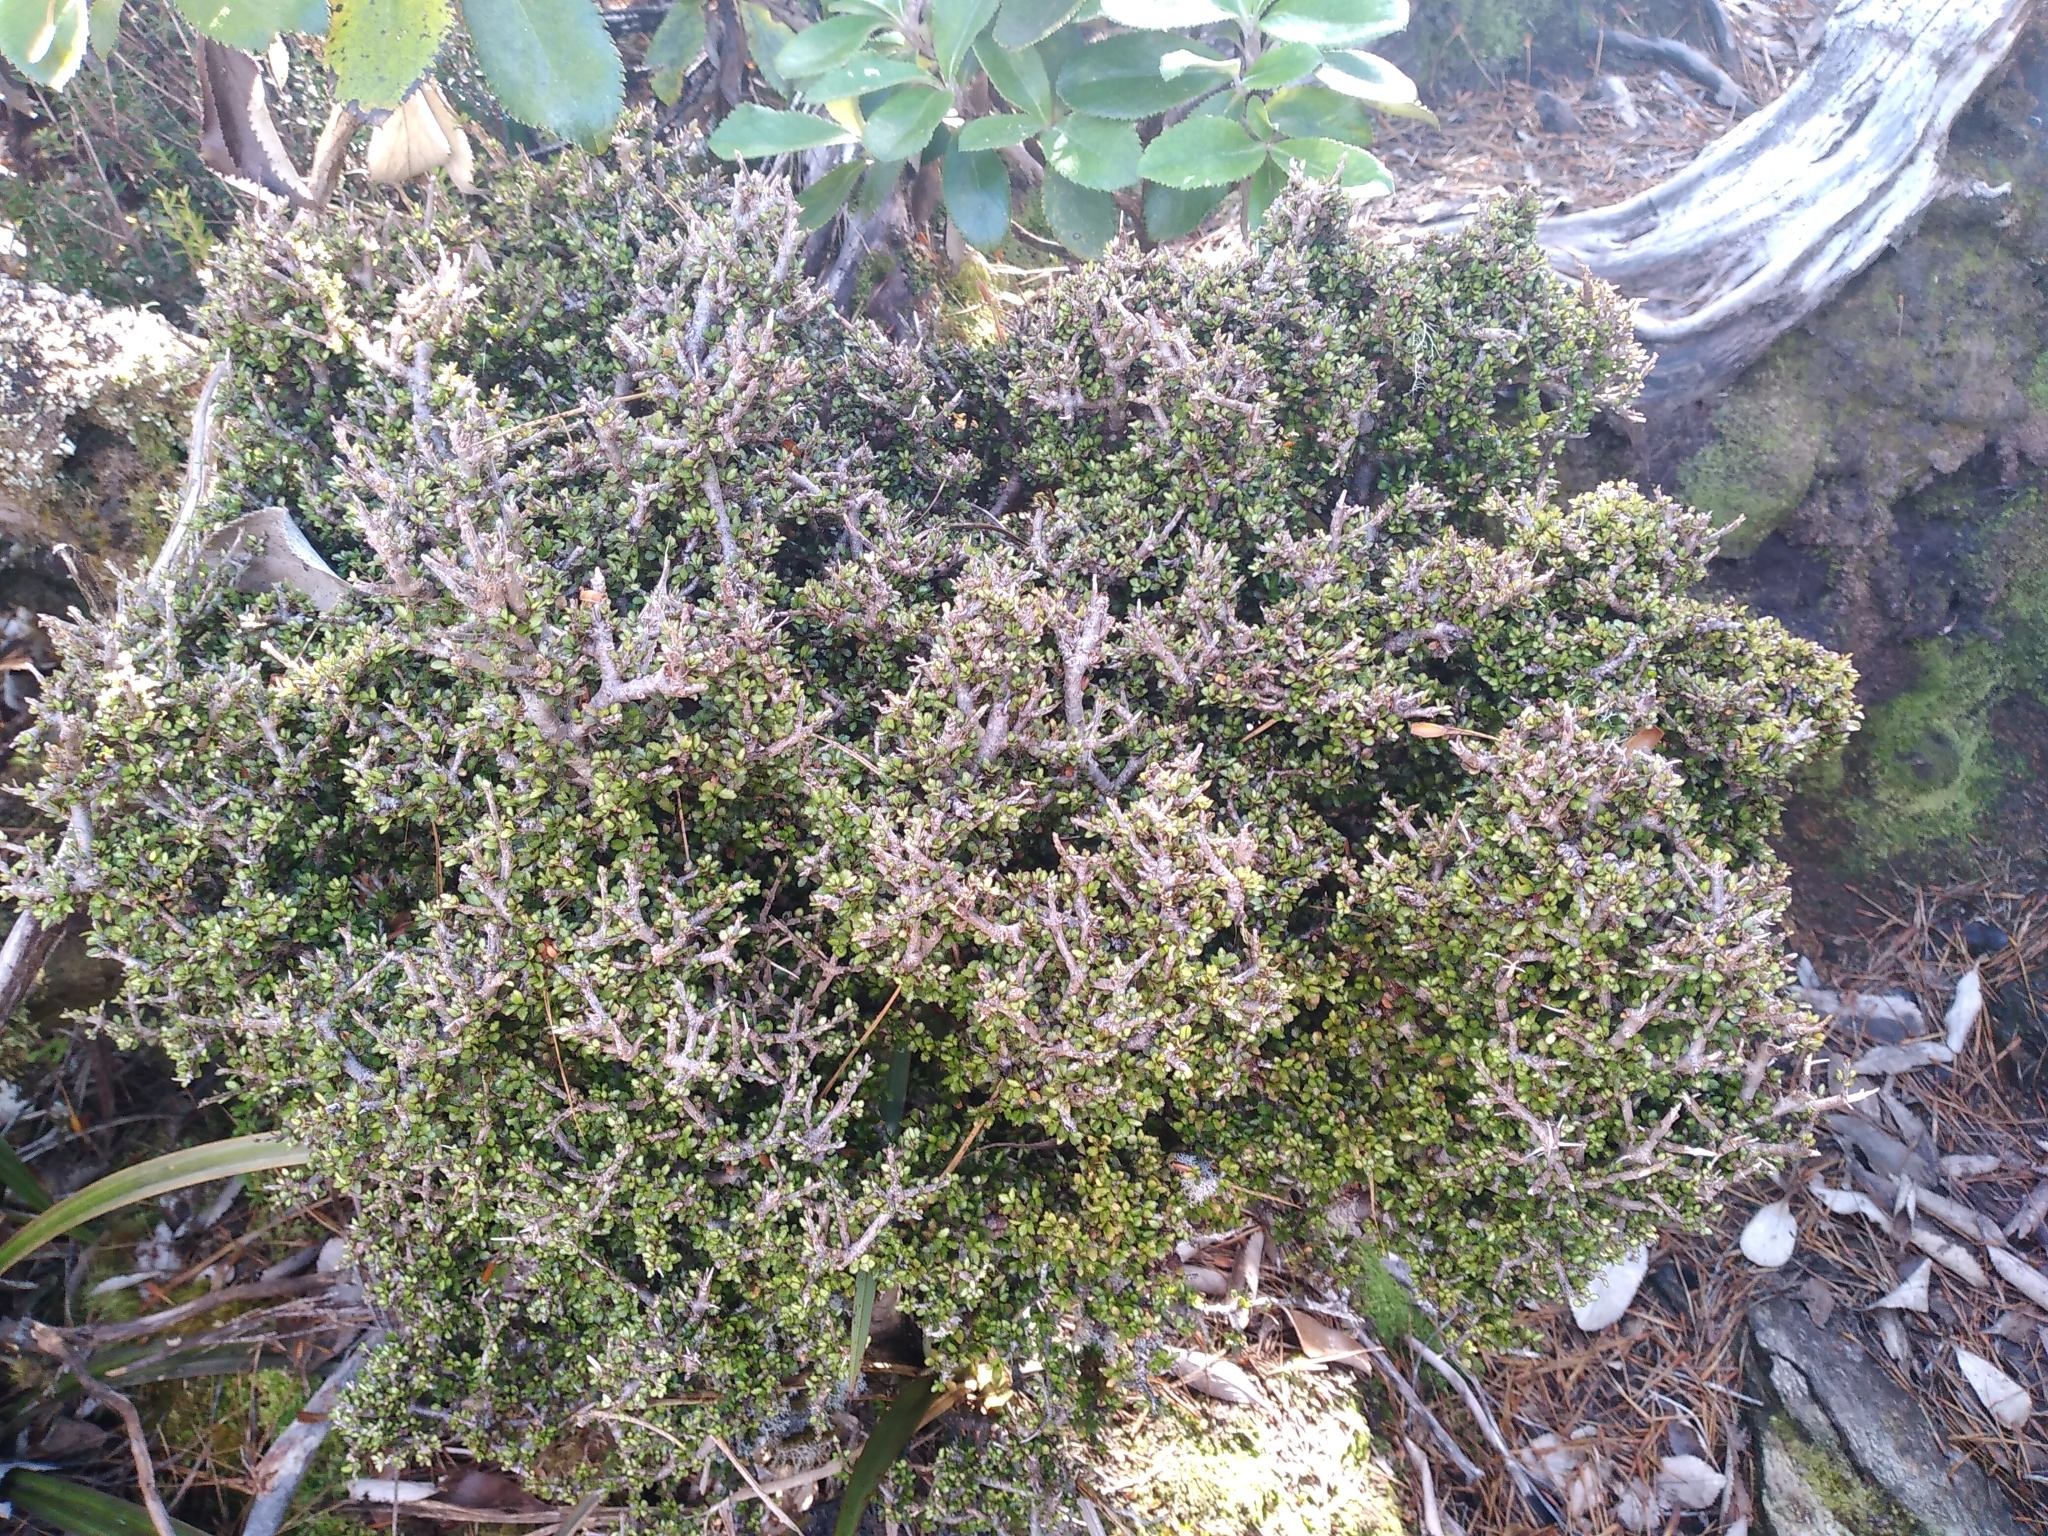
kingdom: Plantae
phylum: Tracheophyta
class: Magnoliopsida
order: Apiales
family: Pittosporaceae
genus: Pittosporum
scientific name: Pittosporum rigidum
